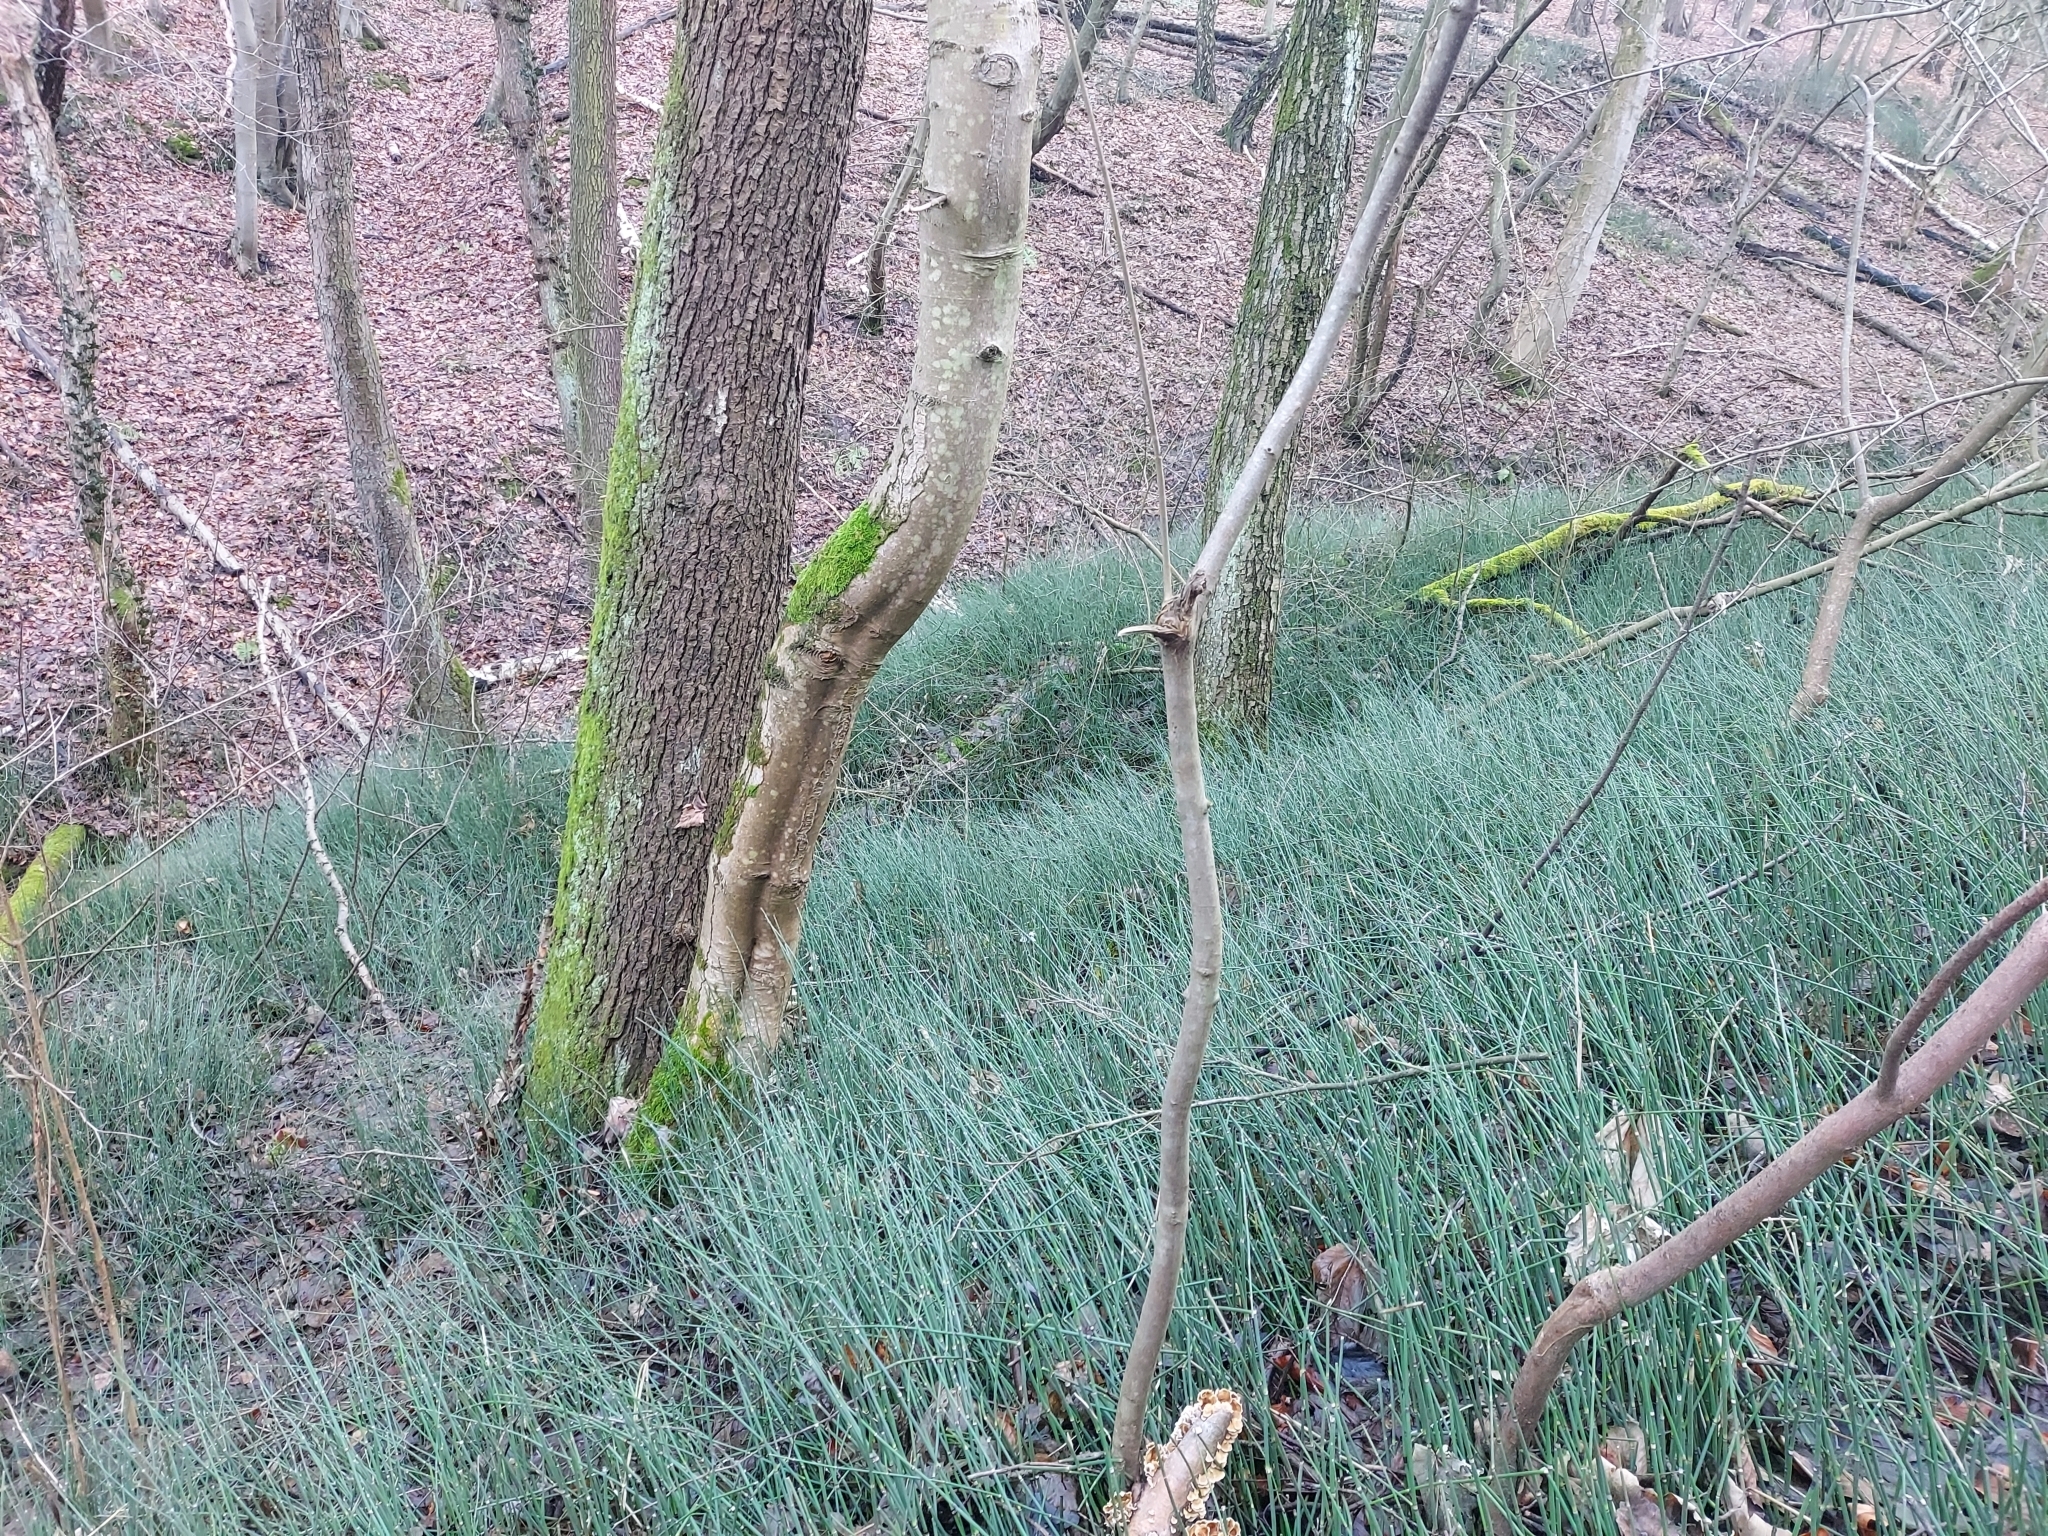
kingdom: Plantae
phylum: Tracheophyta
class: Polypodiopsida
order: Equisetales
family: Equisetaceae
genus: Equisetum
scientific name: Equisetum hyemale
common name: Rough horsetail
